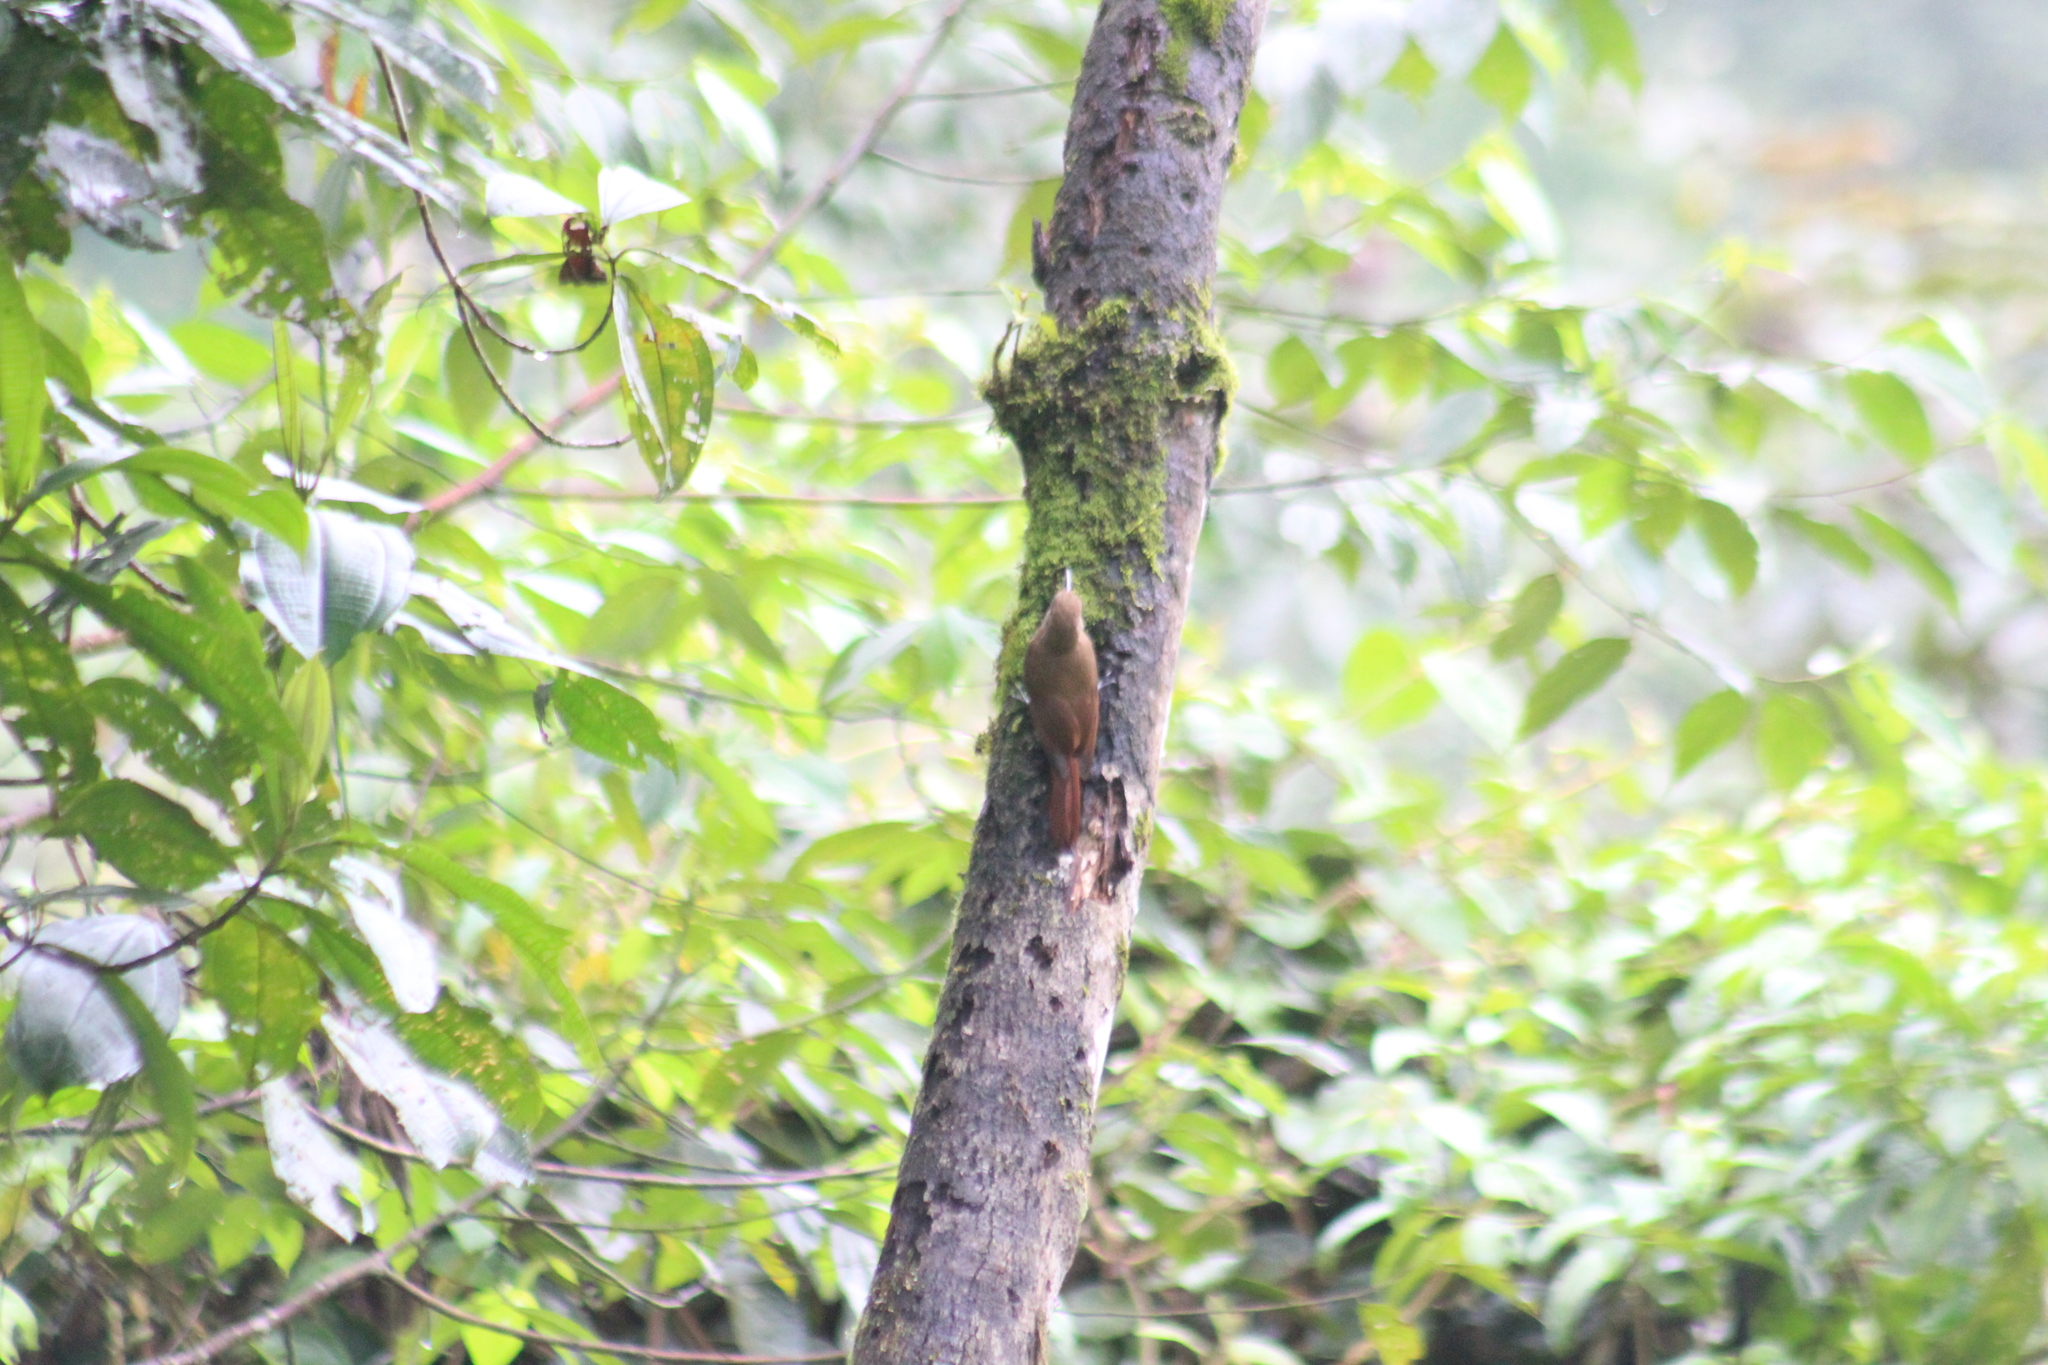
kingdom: Animalia
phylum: Chordata
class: Aves
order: Passeriformes
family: Furnariidae
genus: Dendrocincla
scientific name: Dendrocincla fuliginosa
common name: Plain-brown woodcreeper
